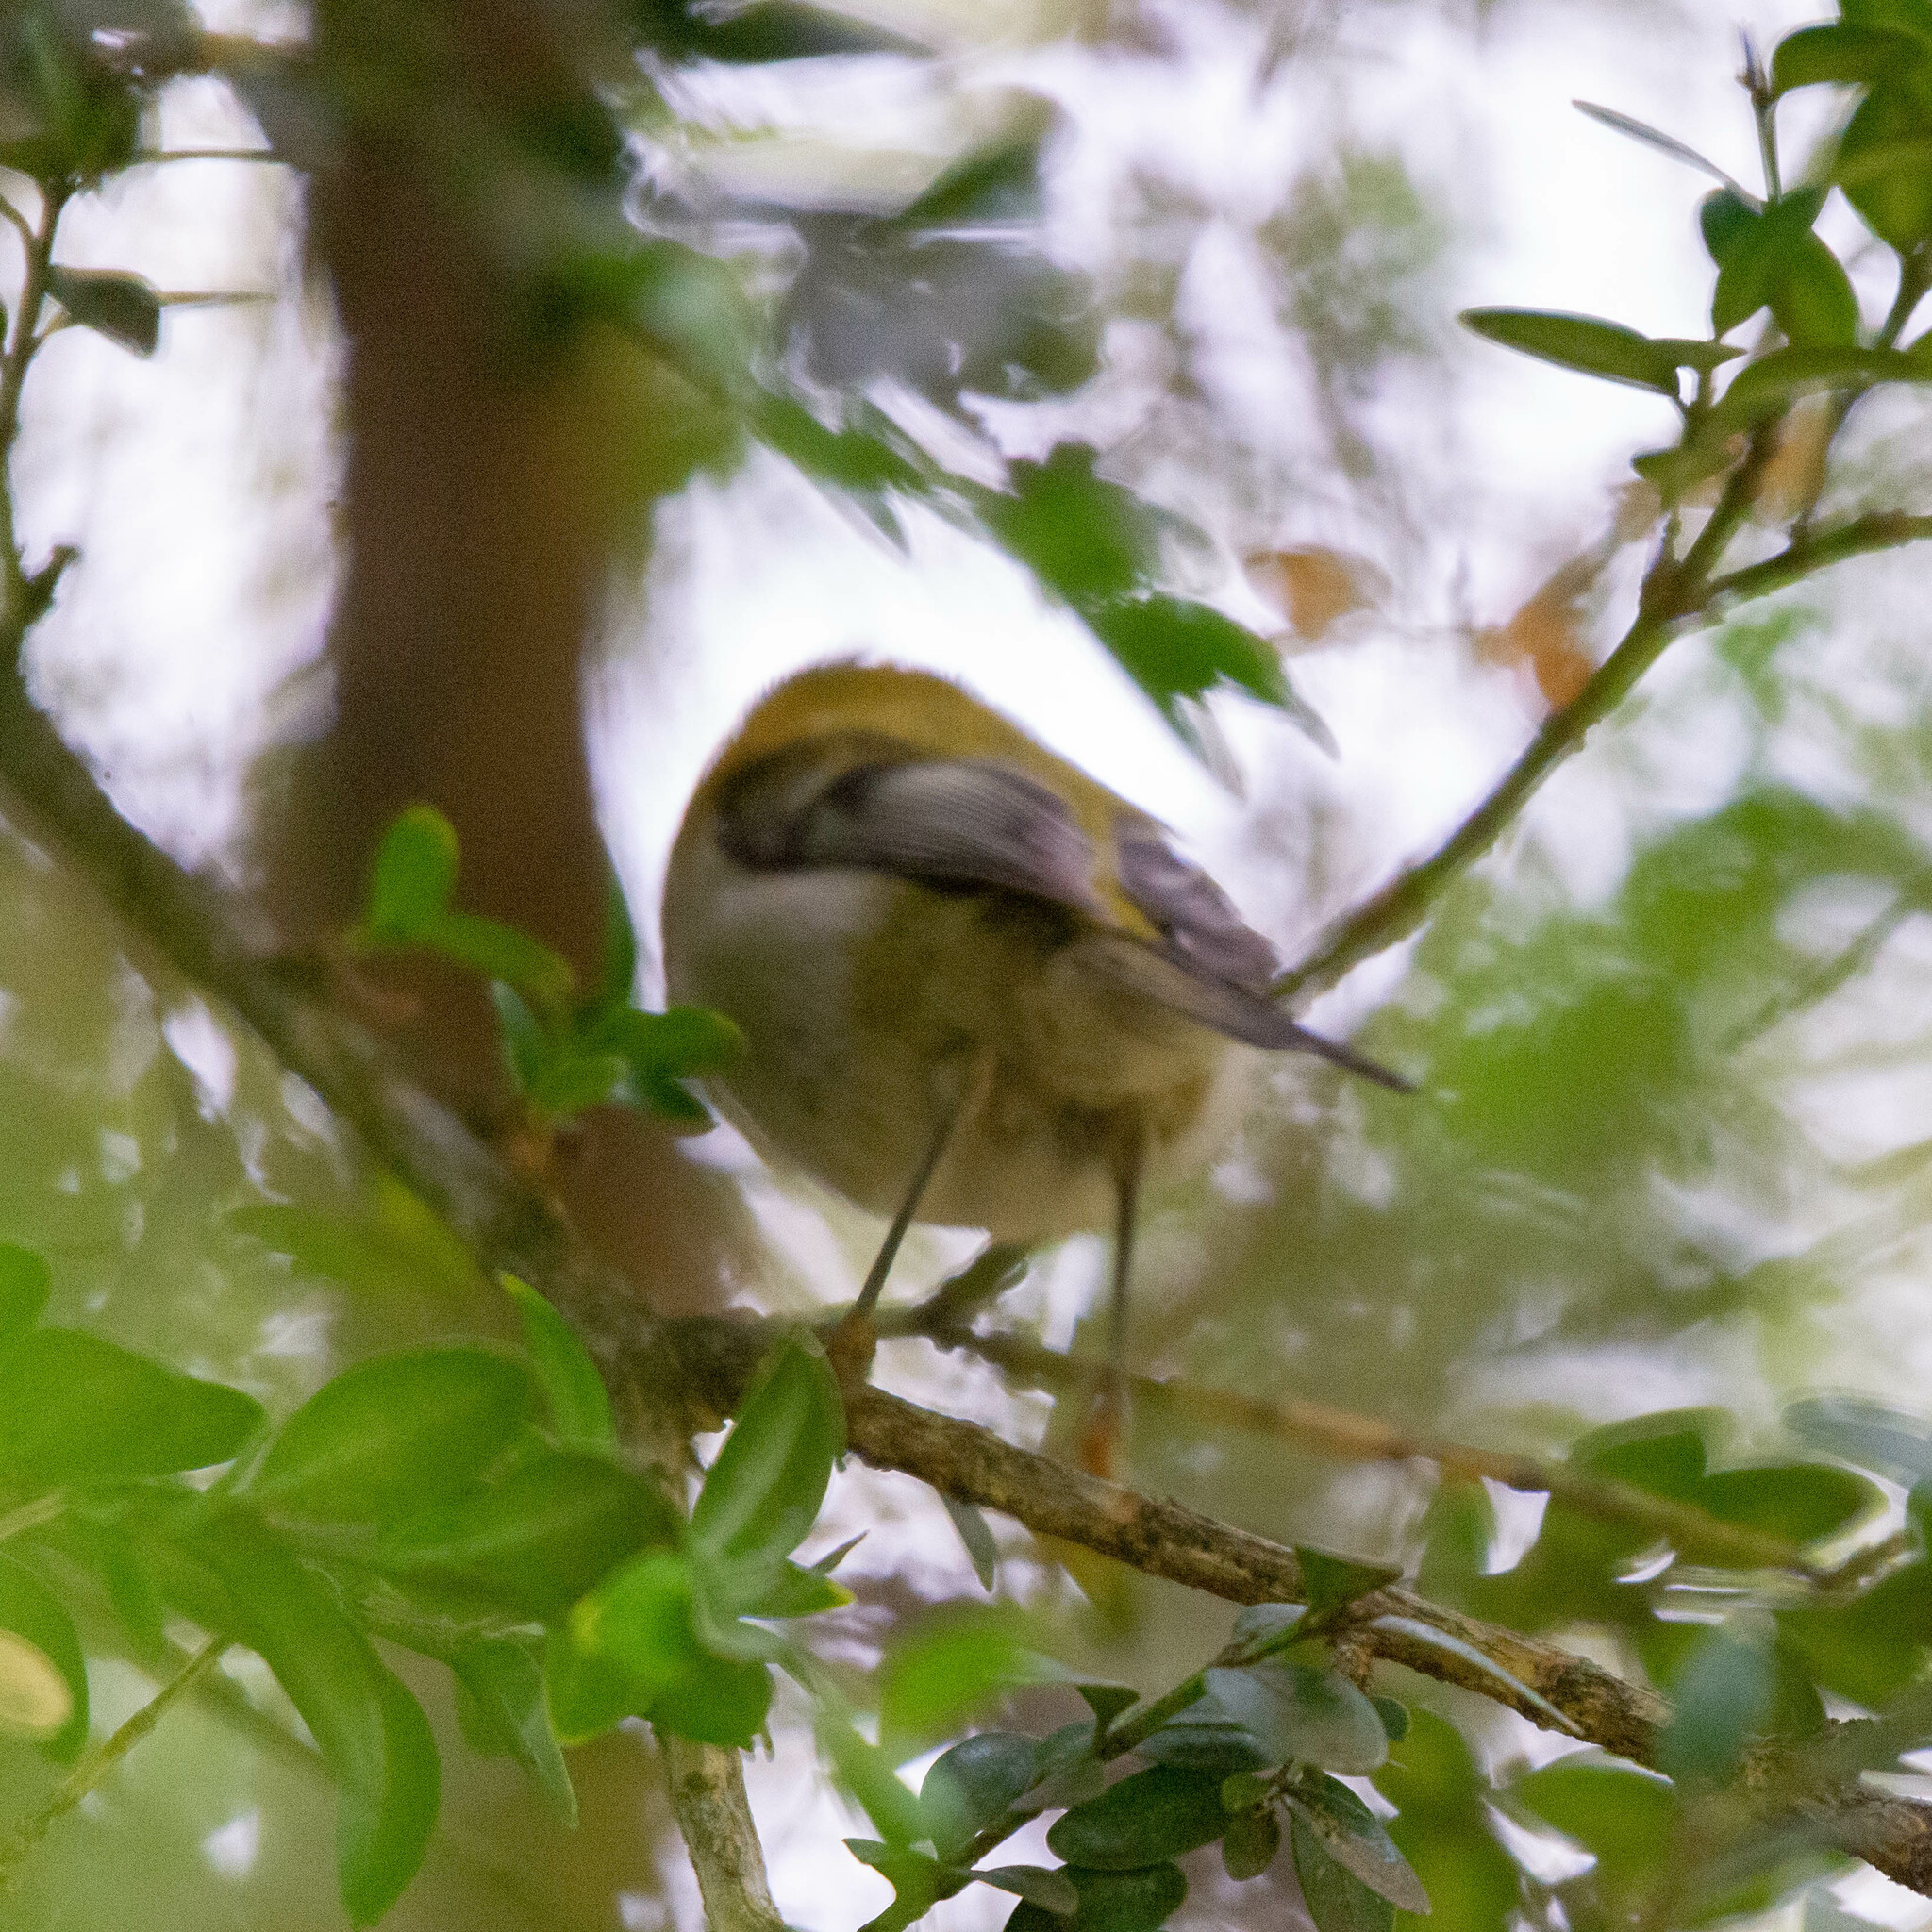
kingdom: Animalia
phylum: Chordata
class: Aves
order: Passeriformes
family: Regulidae
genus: Regulus
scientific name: Regulus ignicapilla
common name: Firecrest
